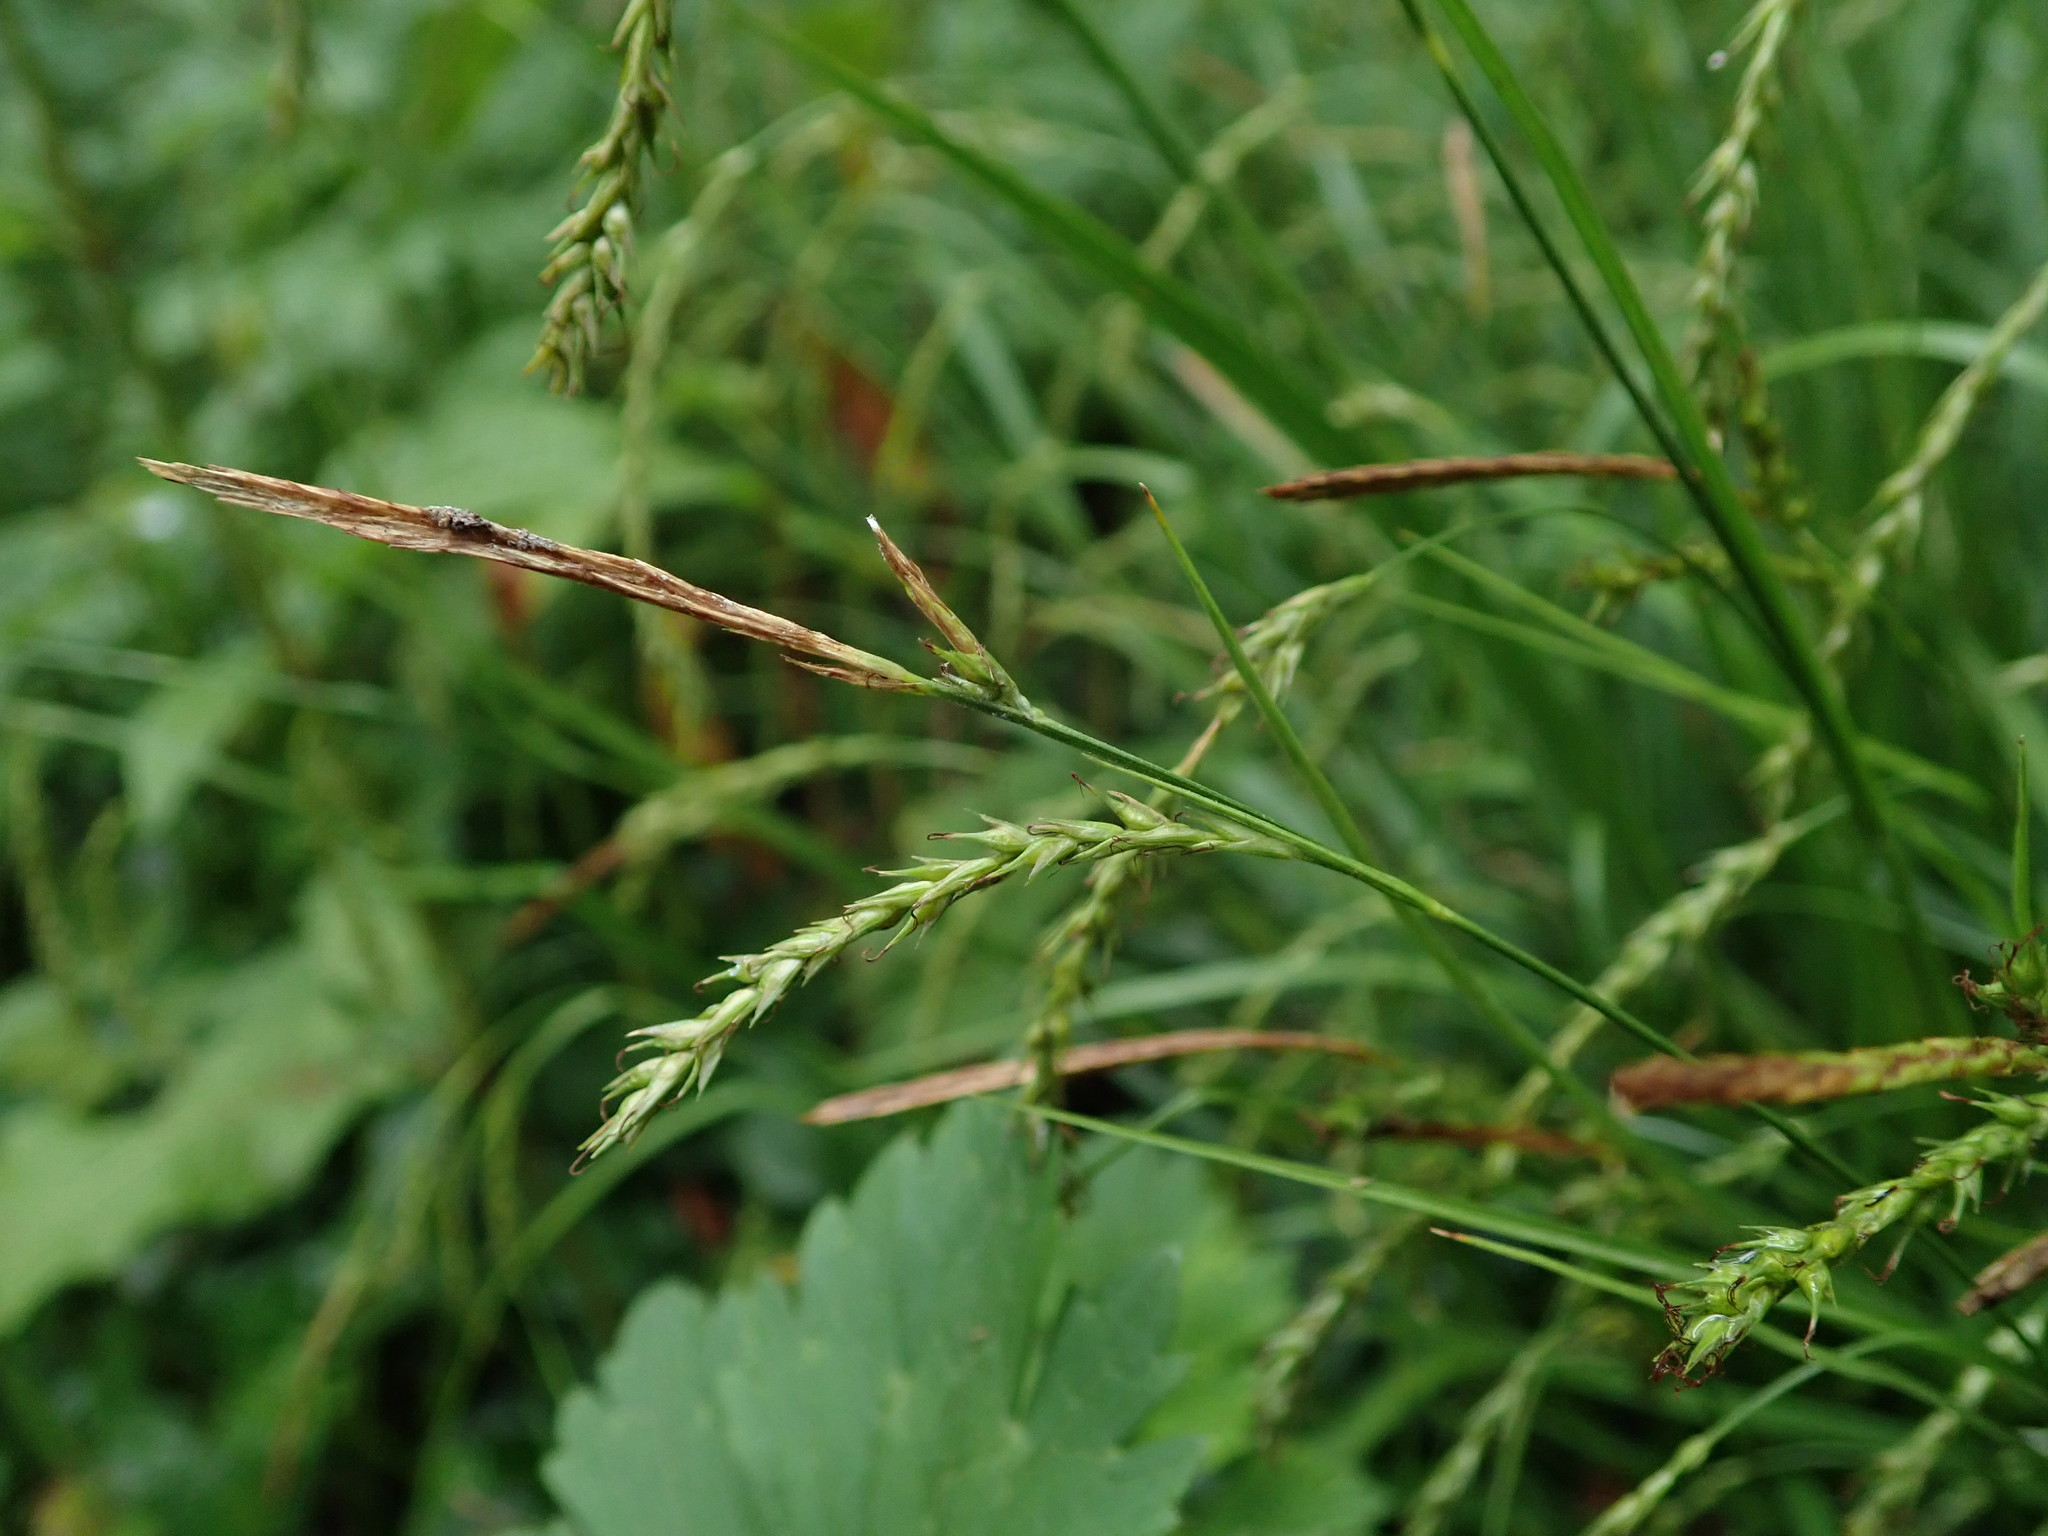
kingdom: Plantae
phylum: Tracheophyta
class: Liliopsida
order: Poales
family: Cyperaceae
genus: Carex
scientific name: Carex sylvatica
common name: Wood-sedge
